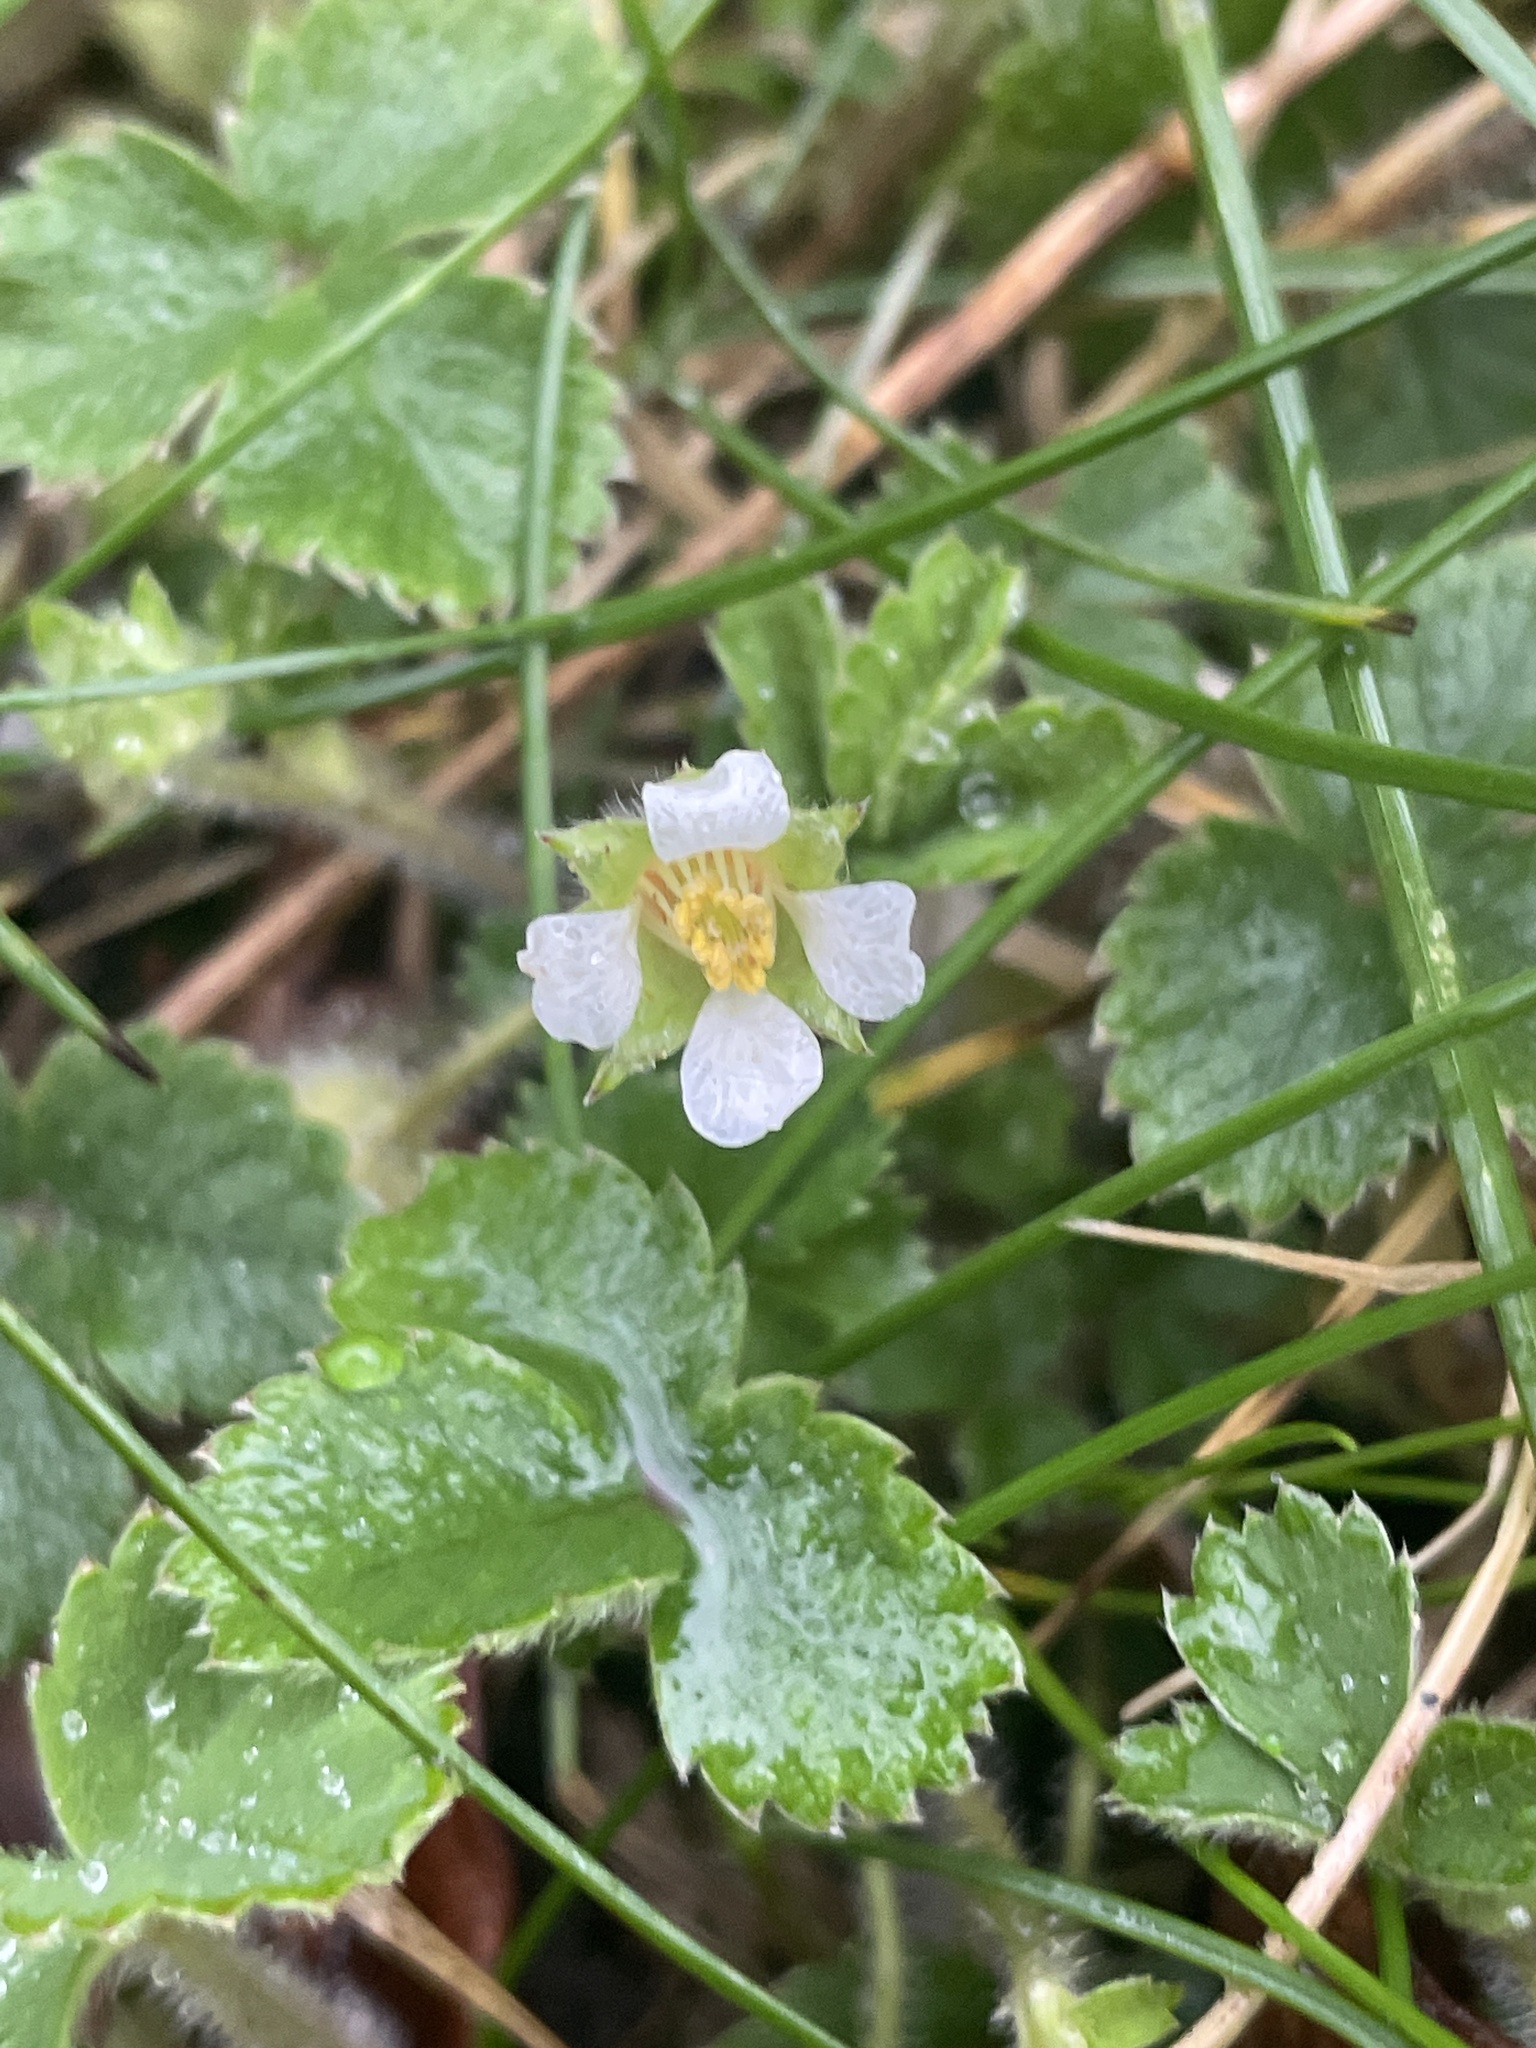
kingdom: Plantae
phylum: Tracheophyta
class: Magnoliopsida
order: Rosales
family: Rosaceae
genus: Potentilla
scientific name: Potentilla sterilis
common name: Barren strawberry
